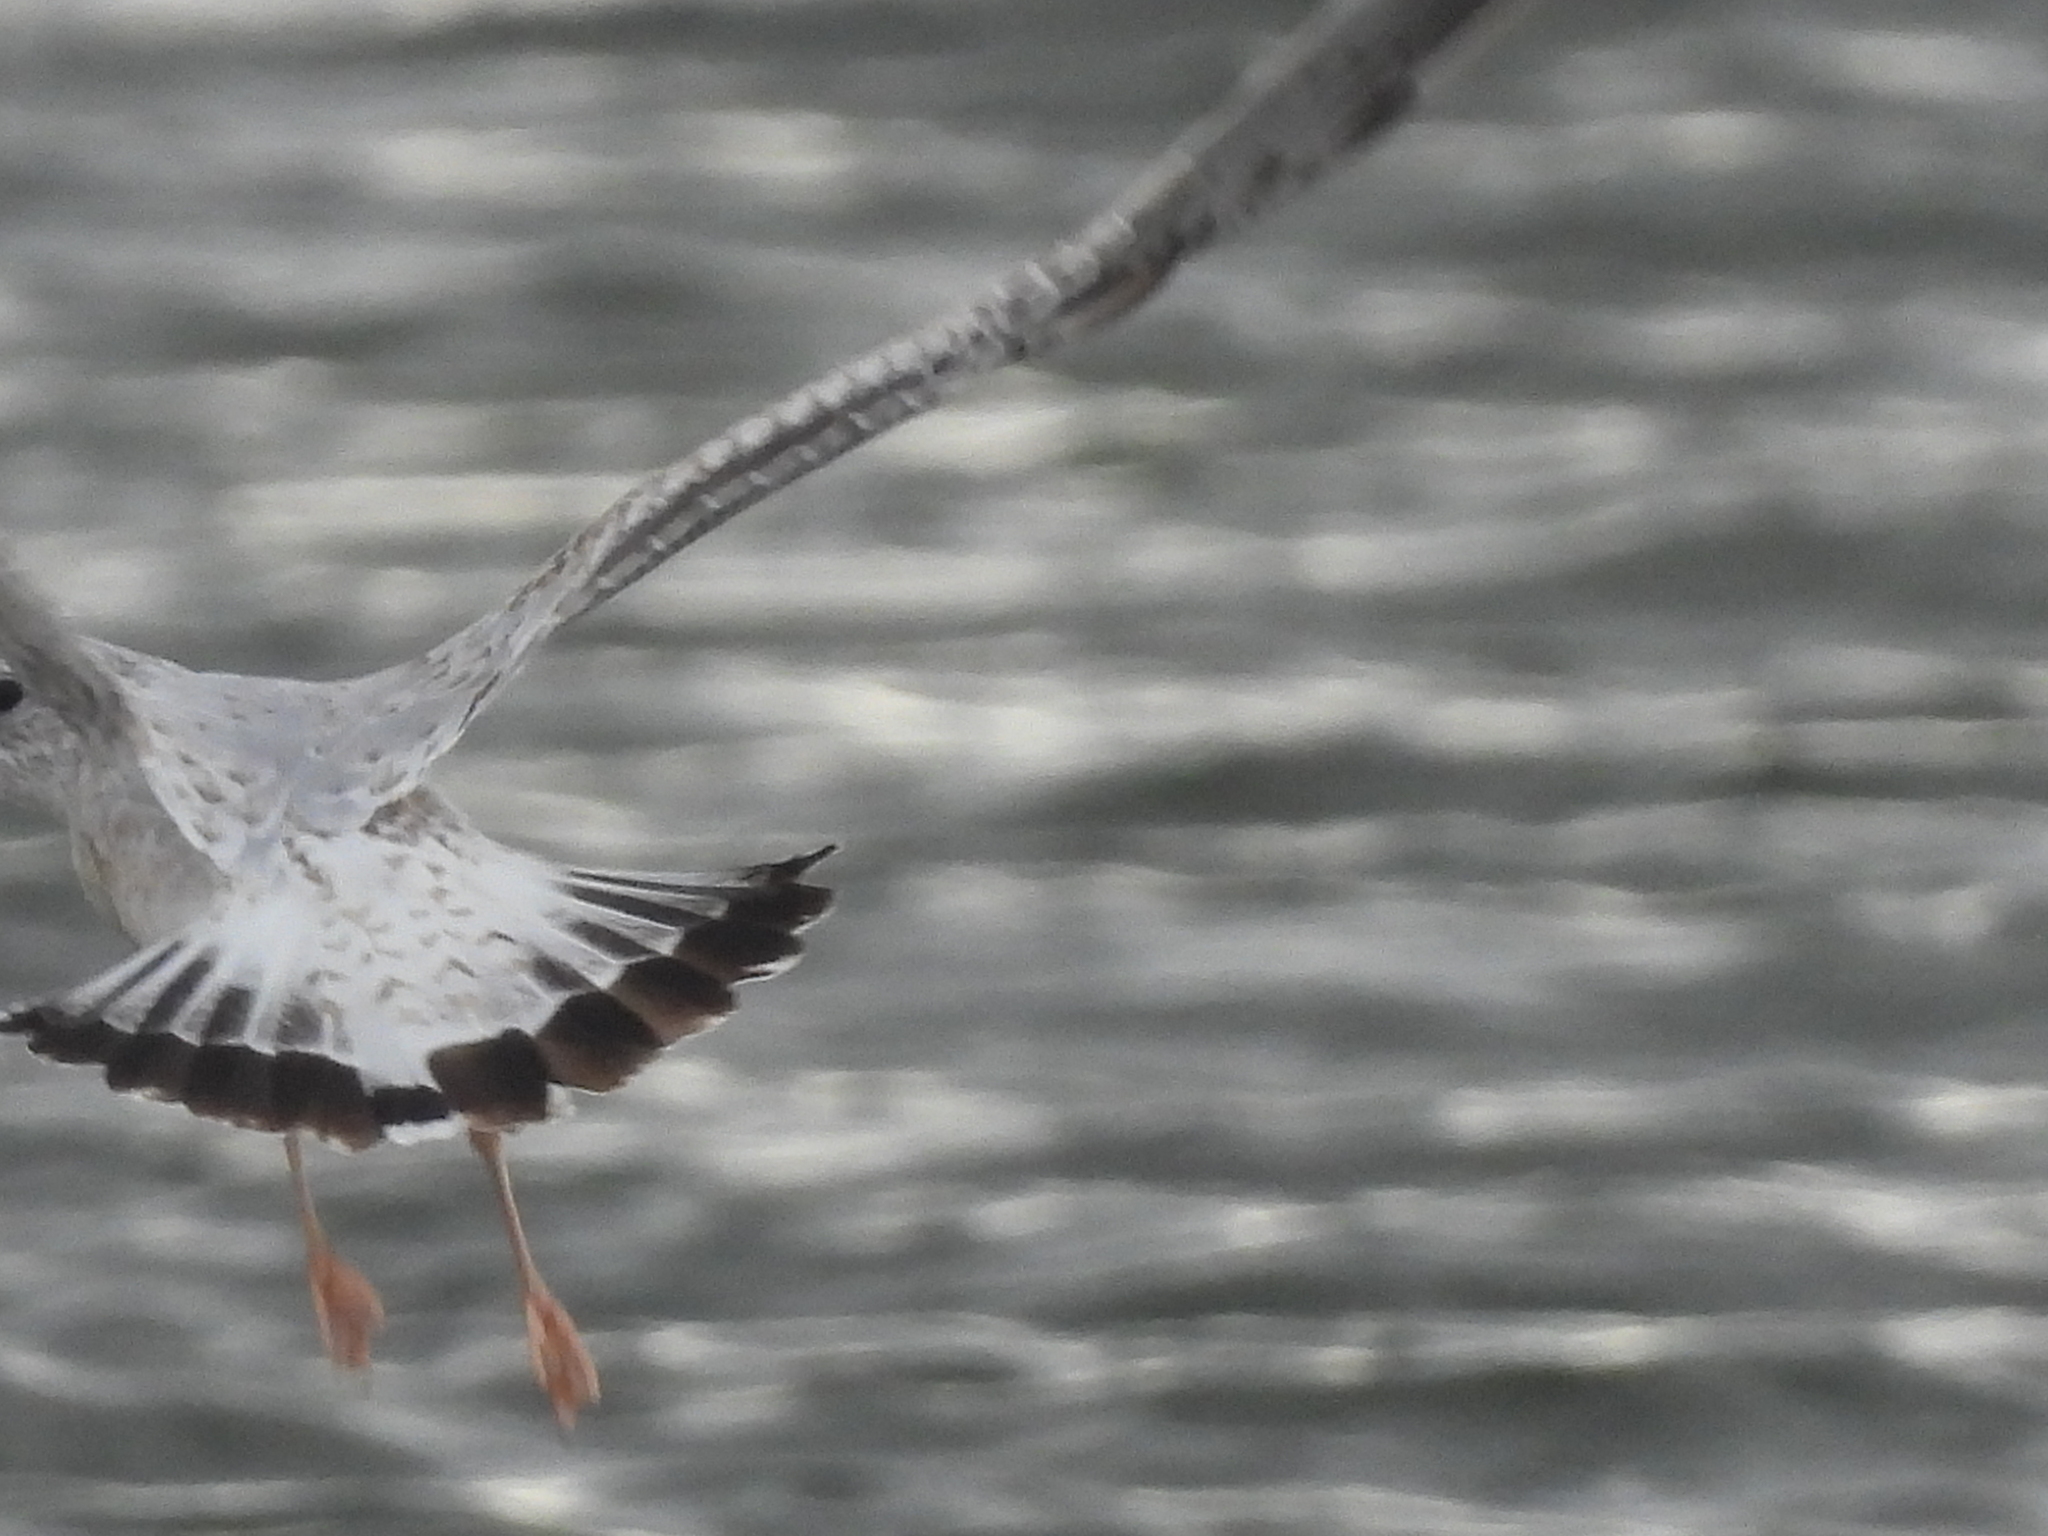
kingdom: Animalia
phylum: Chordata
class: Aves
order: Charadriiformes
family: Laridae
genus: Larus
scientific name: Larus delawarensis
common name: Ring-billed gull
